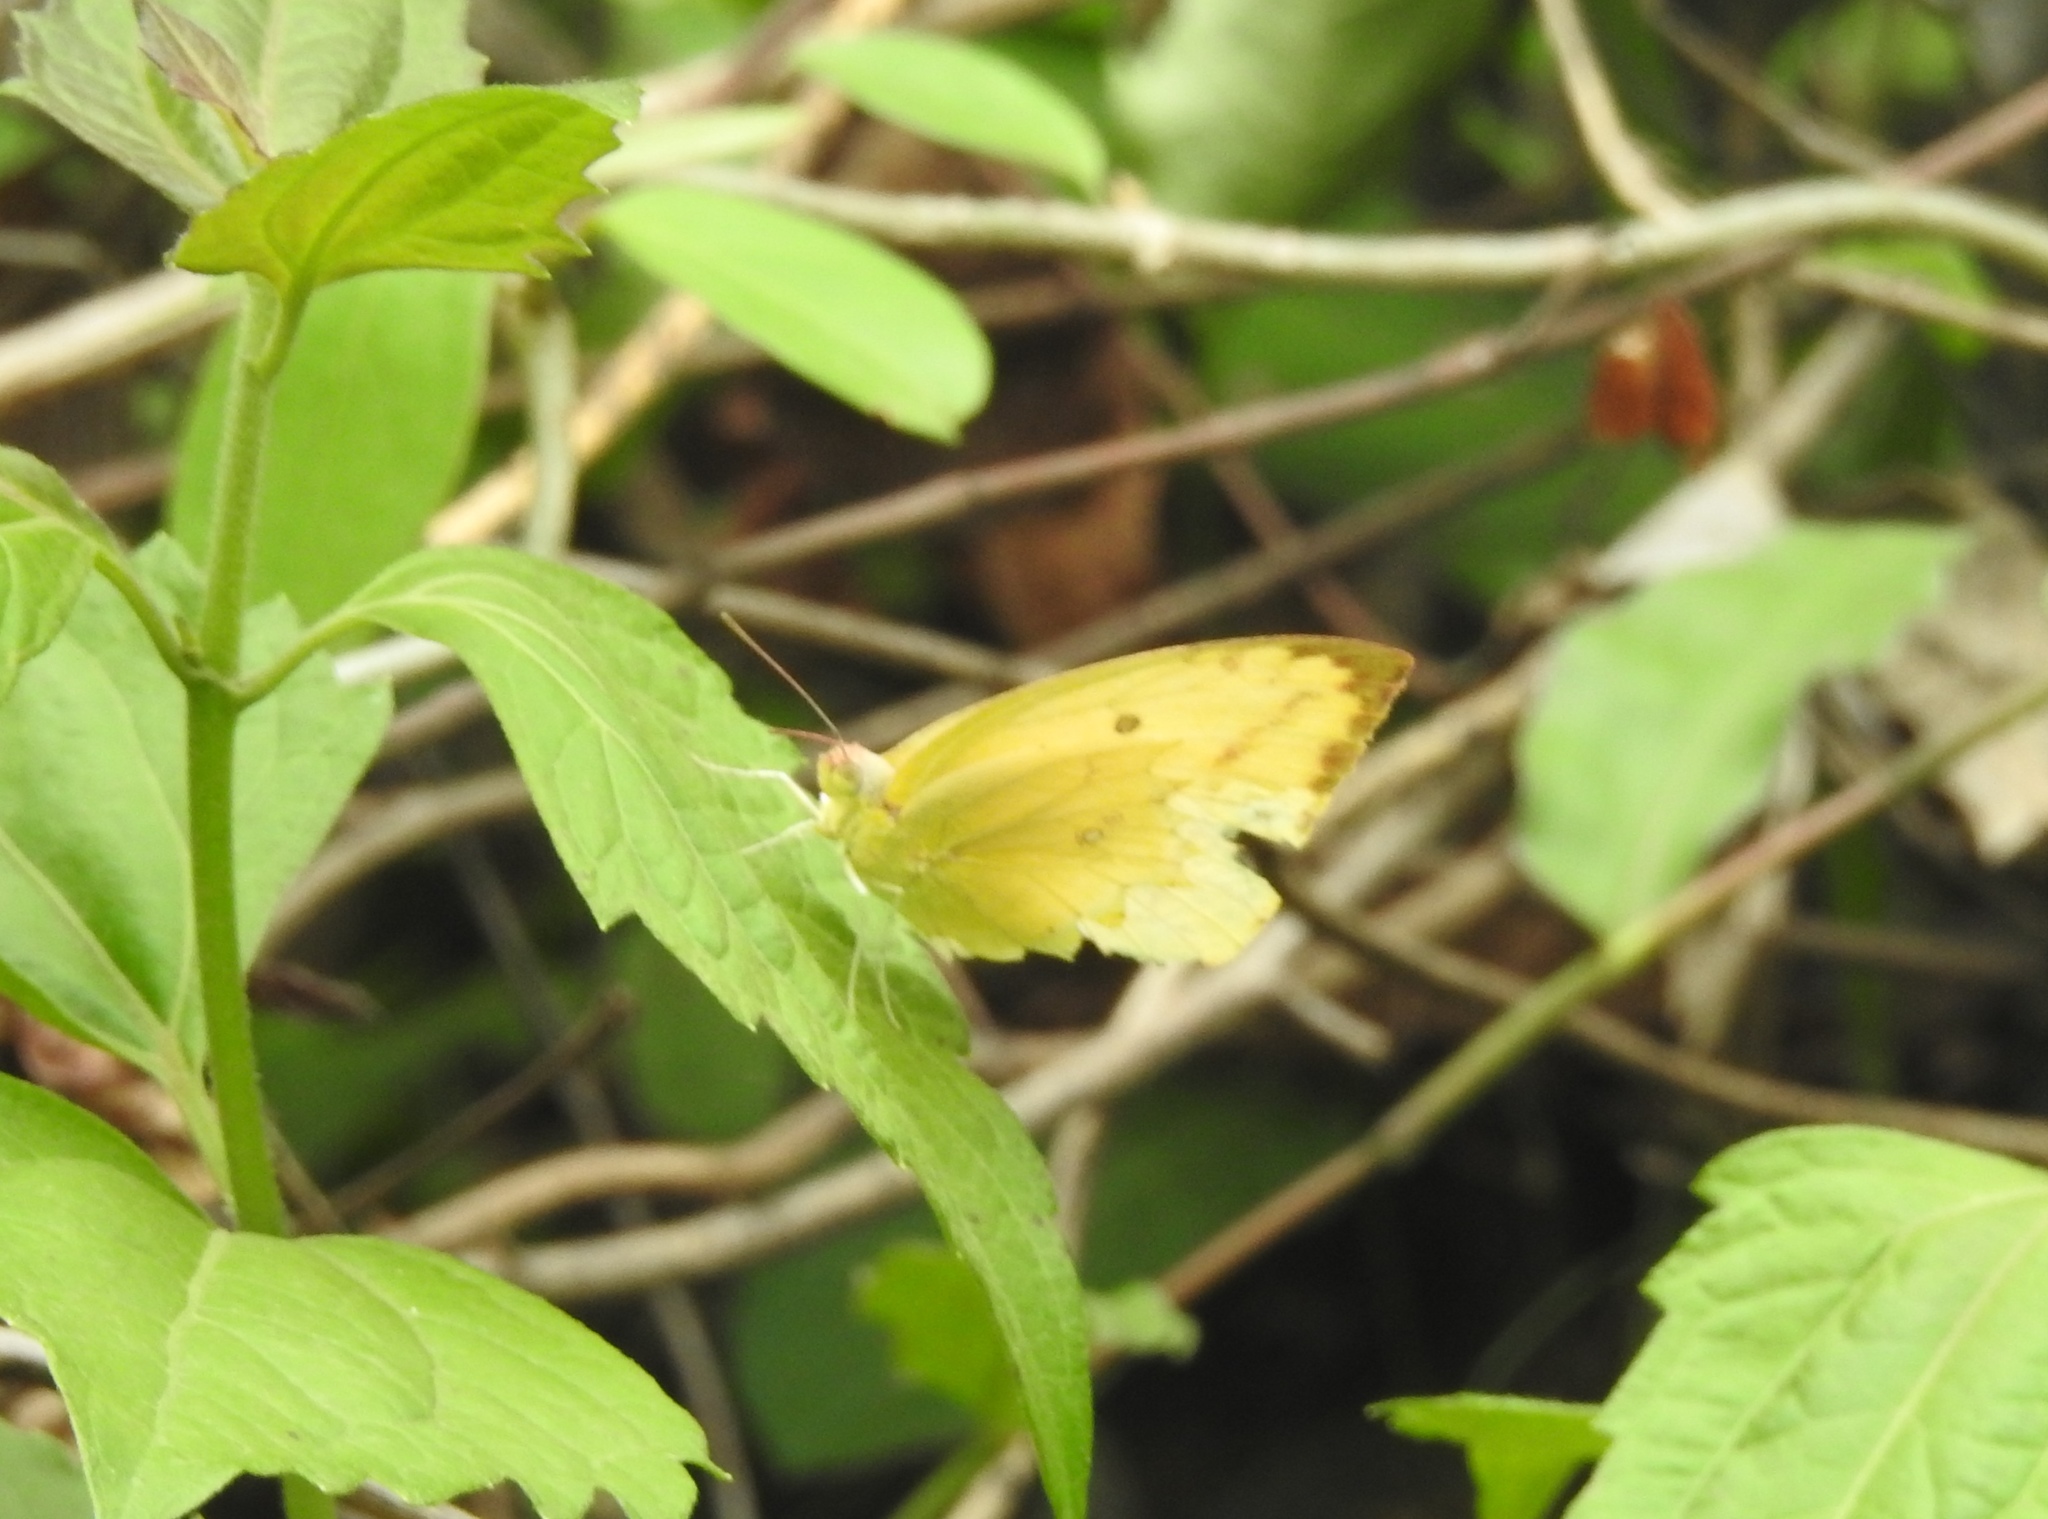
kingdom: Animalia
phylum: Arthropoda
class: Insecta
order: Lepidoptera
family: Pieridae
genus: Catopsilia
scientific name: Catopsilia pomona
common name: Common emigrant
